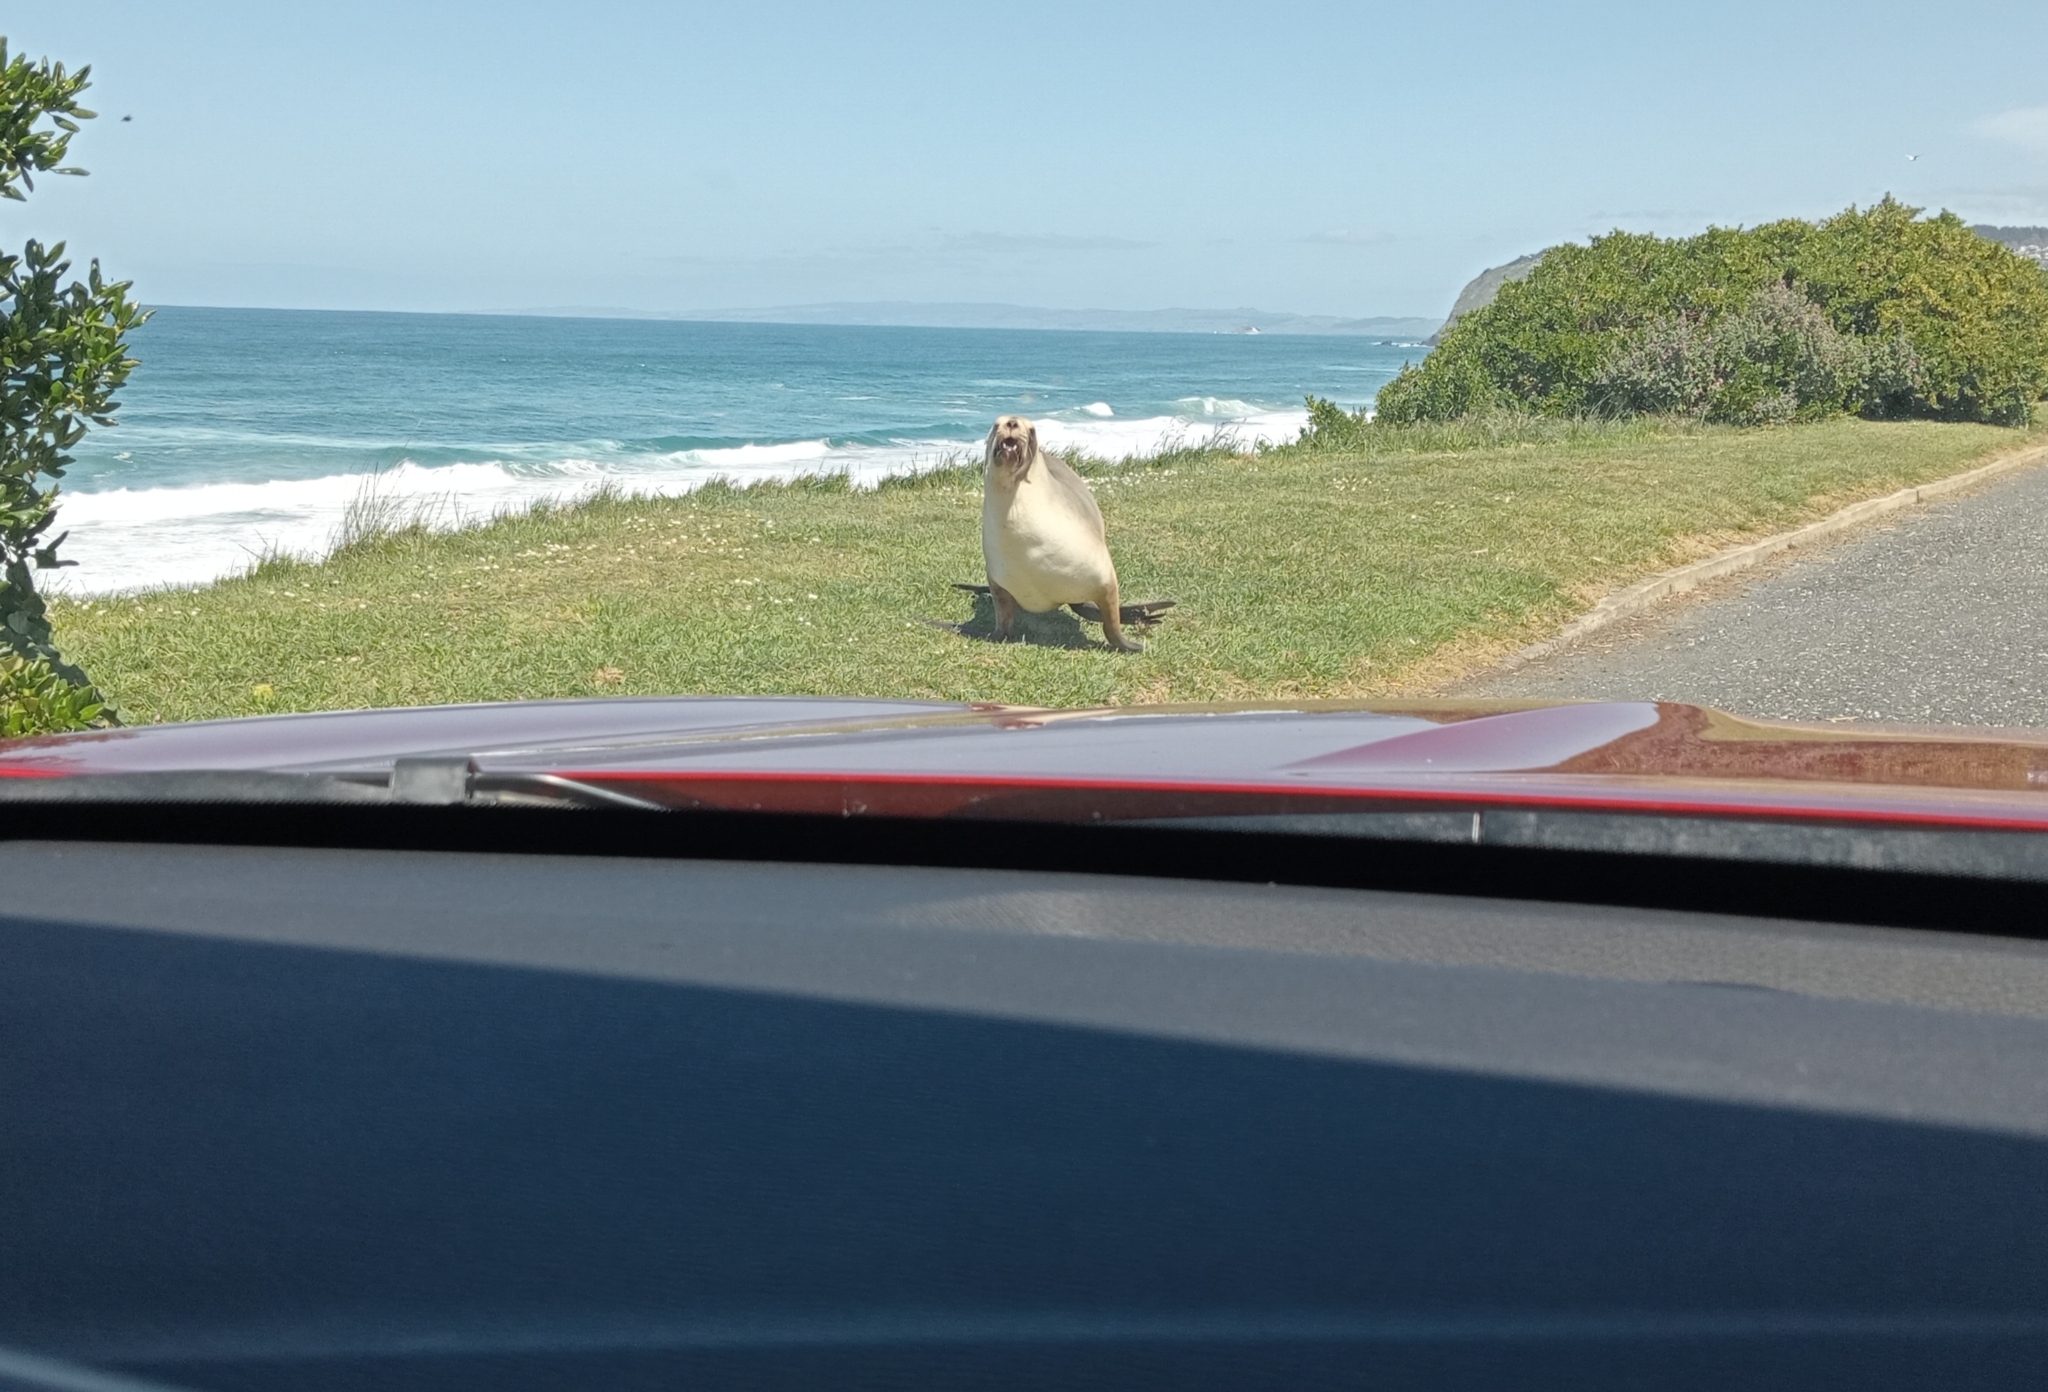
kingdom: Animalia
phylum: Chordata
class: Mammalia
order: Carnivora
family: Otariidae
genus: Phocarctos
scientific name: Phocarctos hookeri
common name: New zealand sea lion
